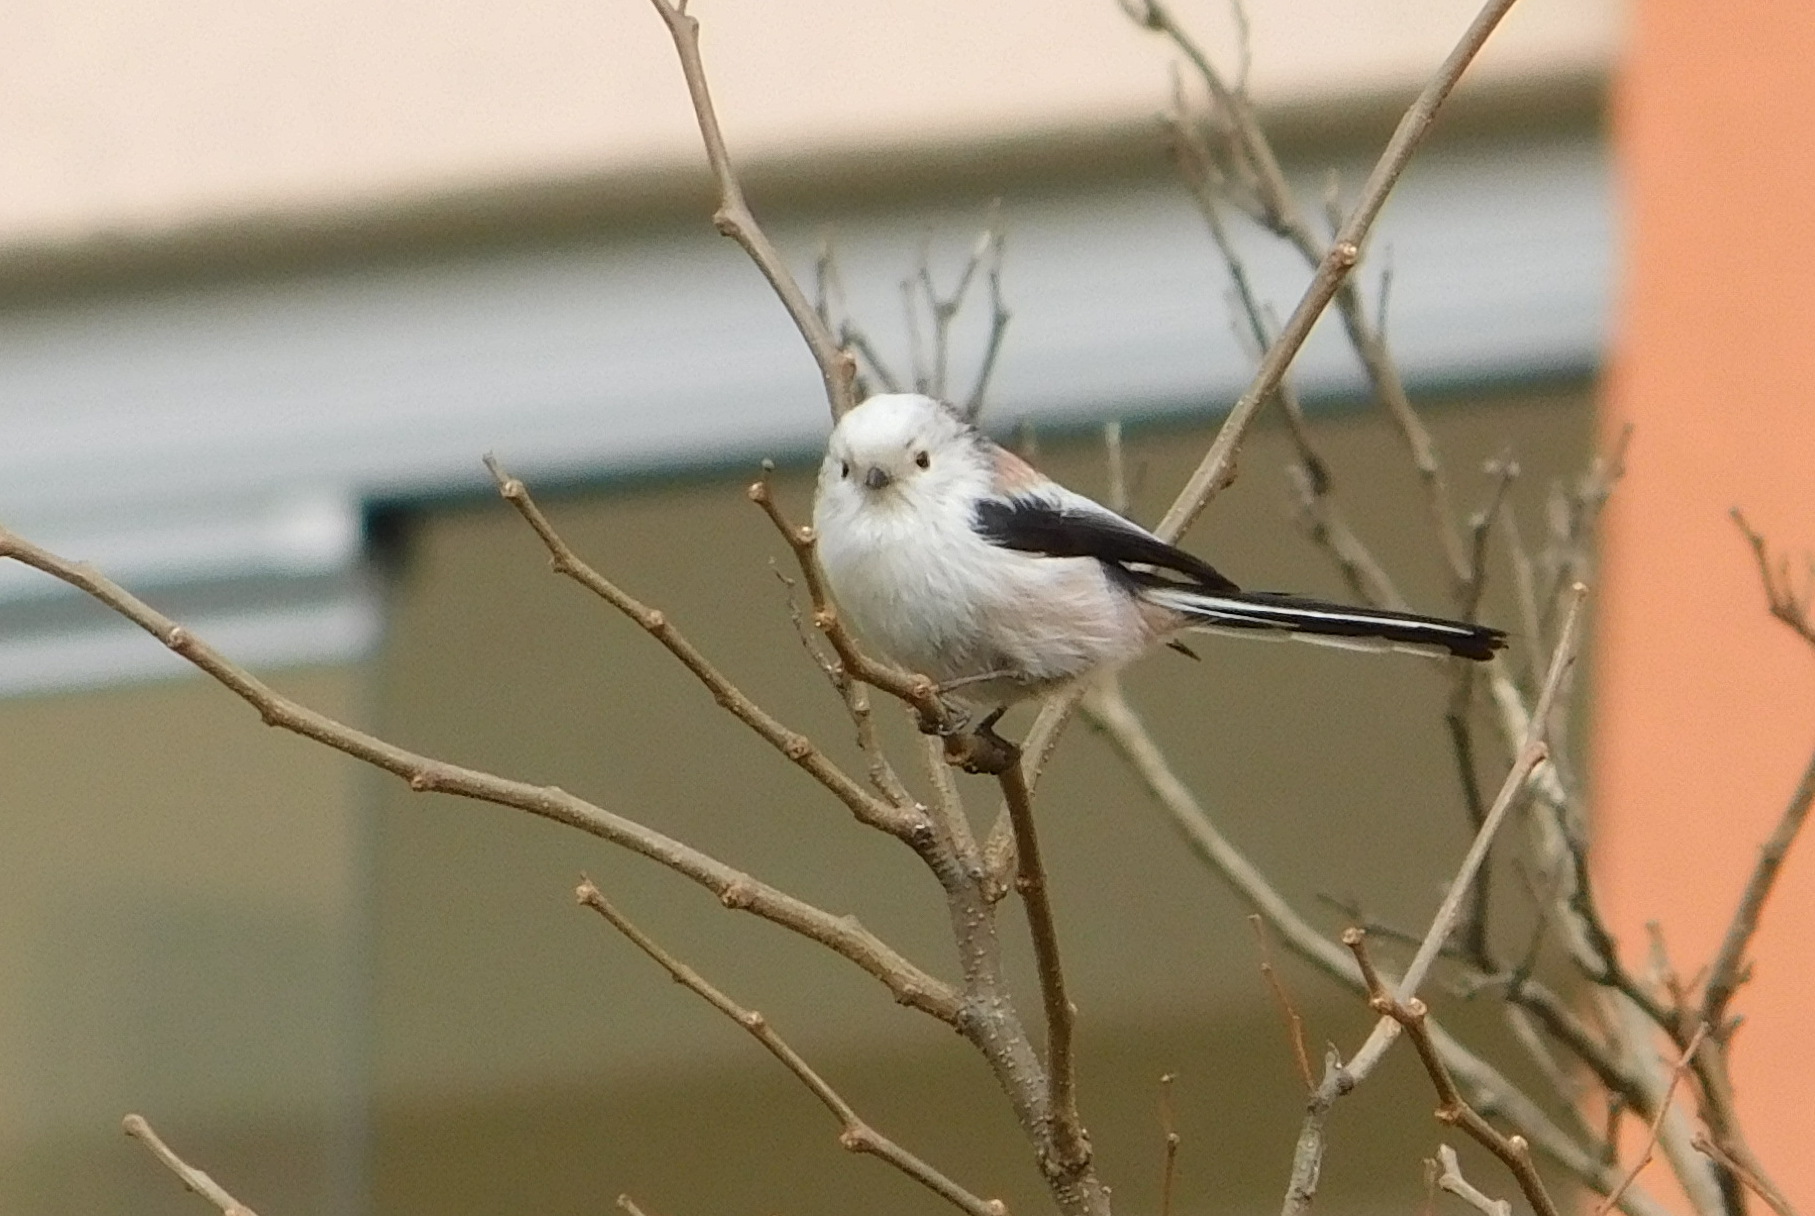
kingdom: Animalia
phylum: Chordata
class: Aves
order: Passeriformes
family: Aegithalidae
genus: Aegithalos
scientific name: Aegithalos caudatus
